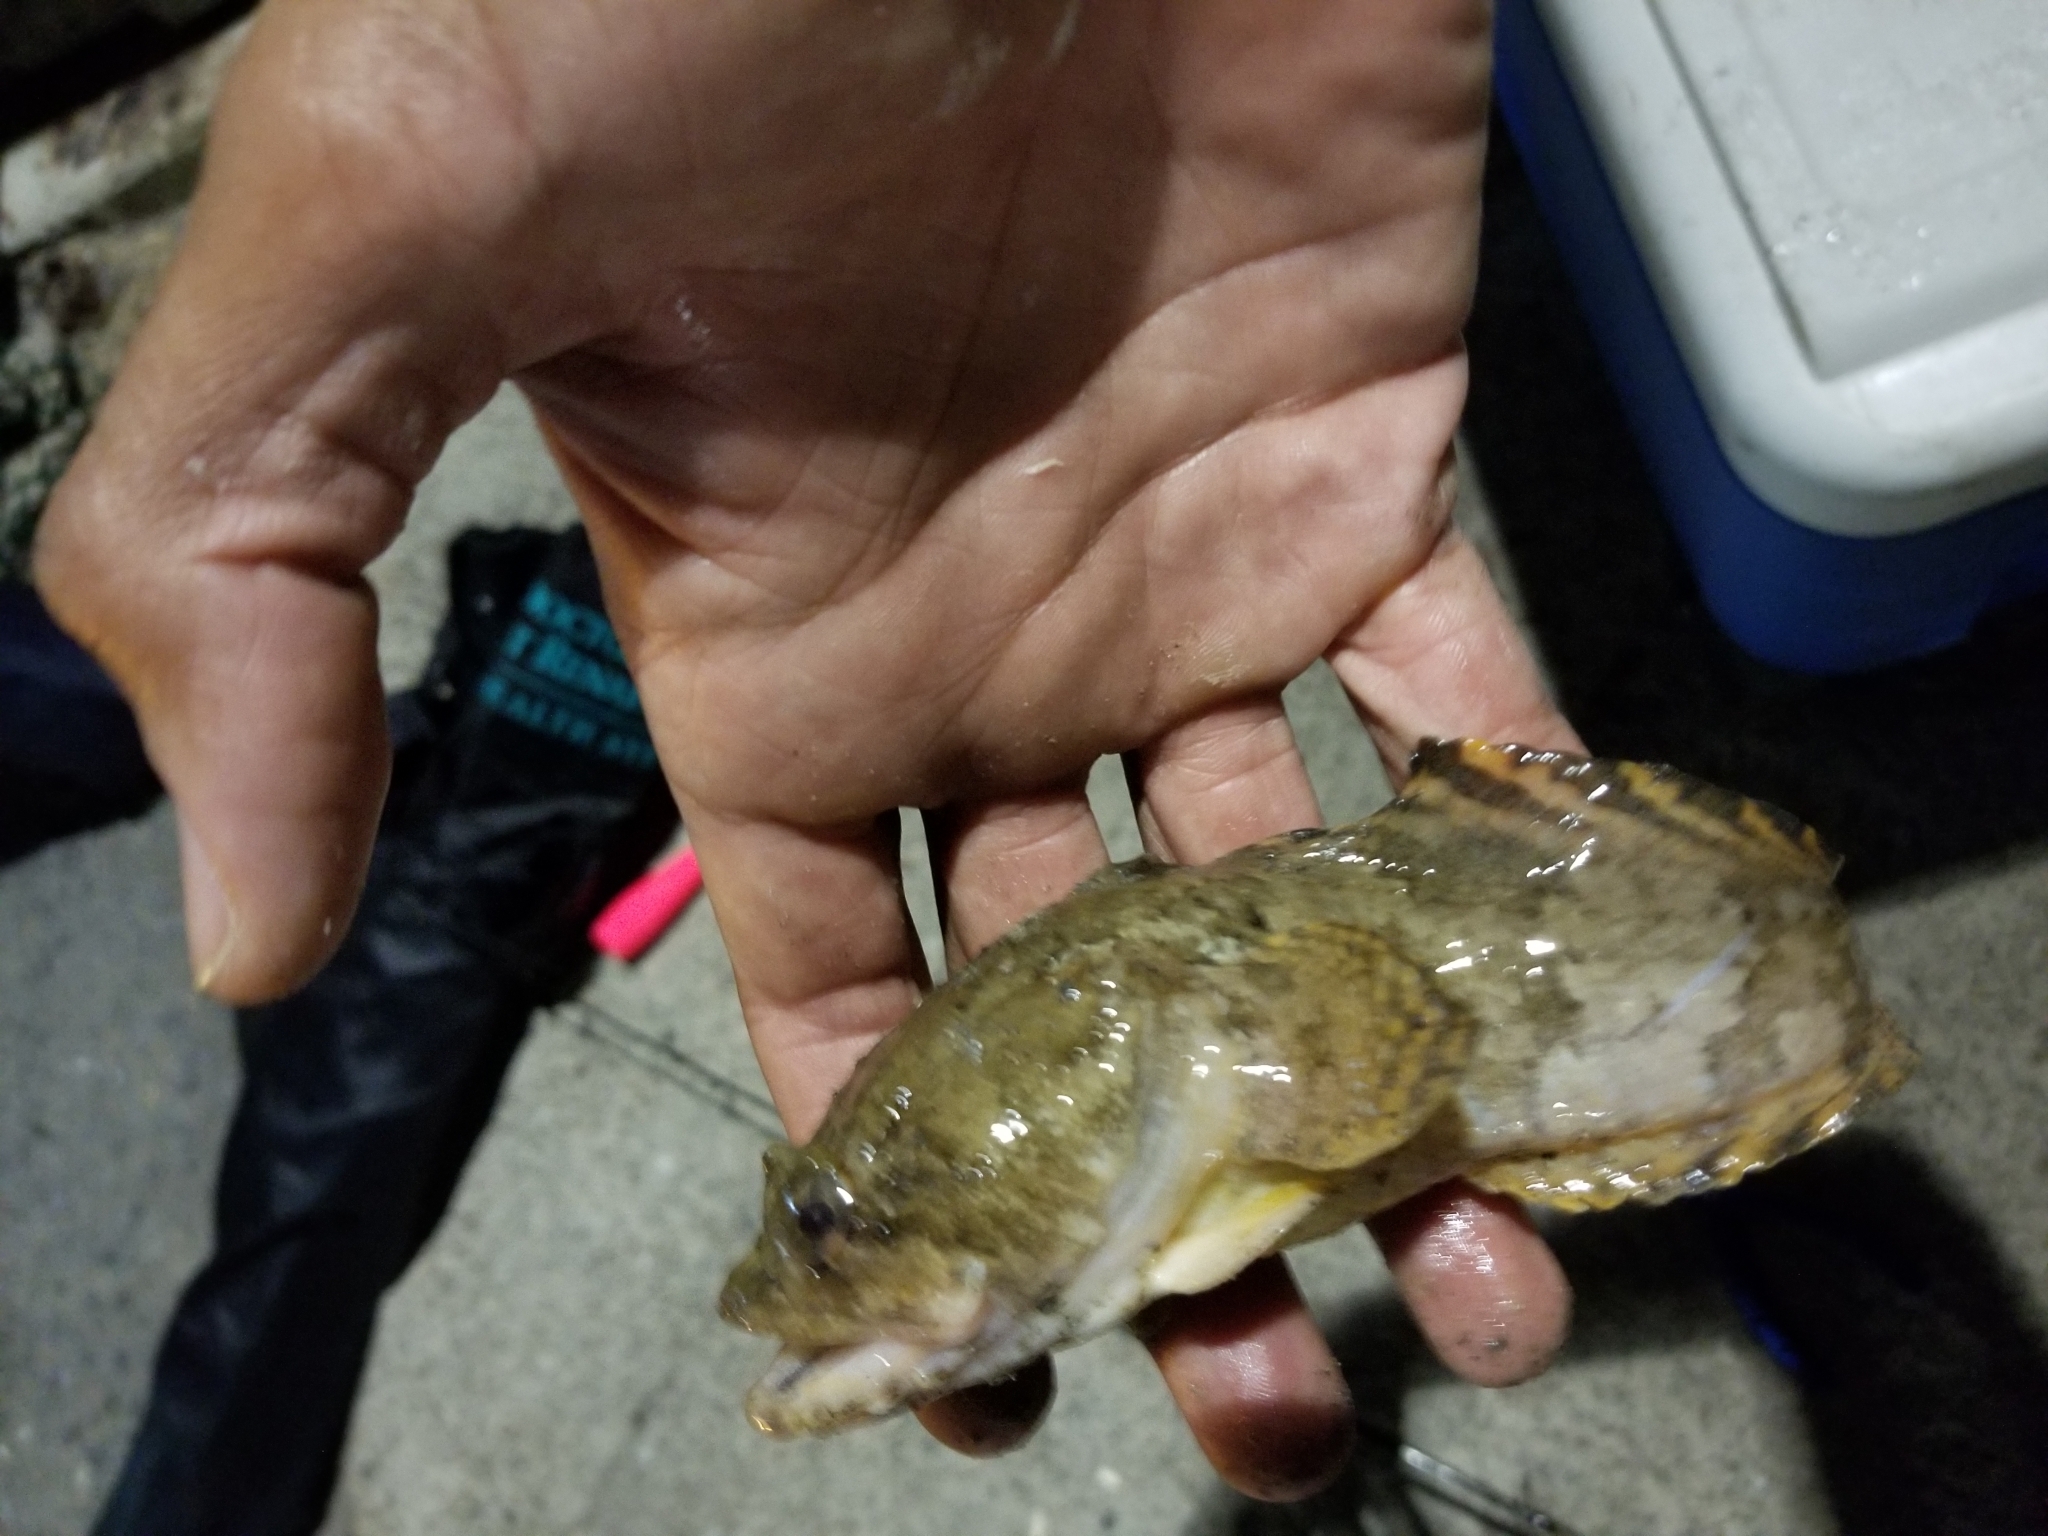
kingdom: Animalia
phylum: Chordata
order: Batrachoidiformes
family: Batrachoididae
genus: Opsanus
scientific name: Opsanus beta
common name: Gulf toadfish
